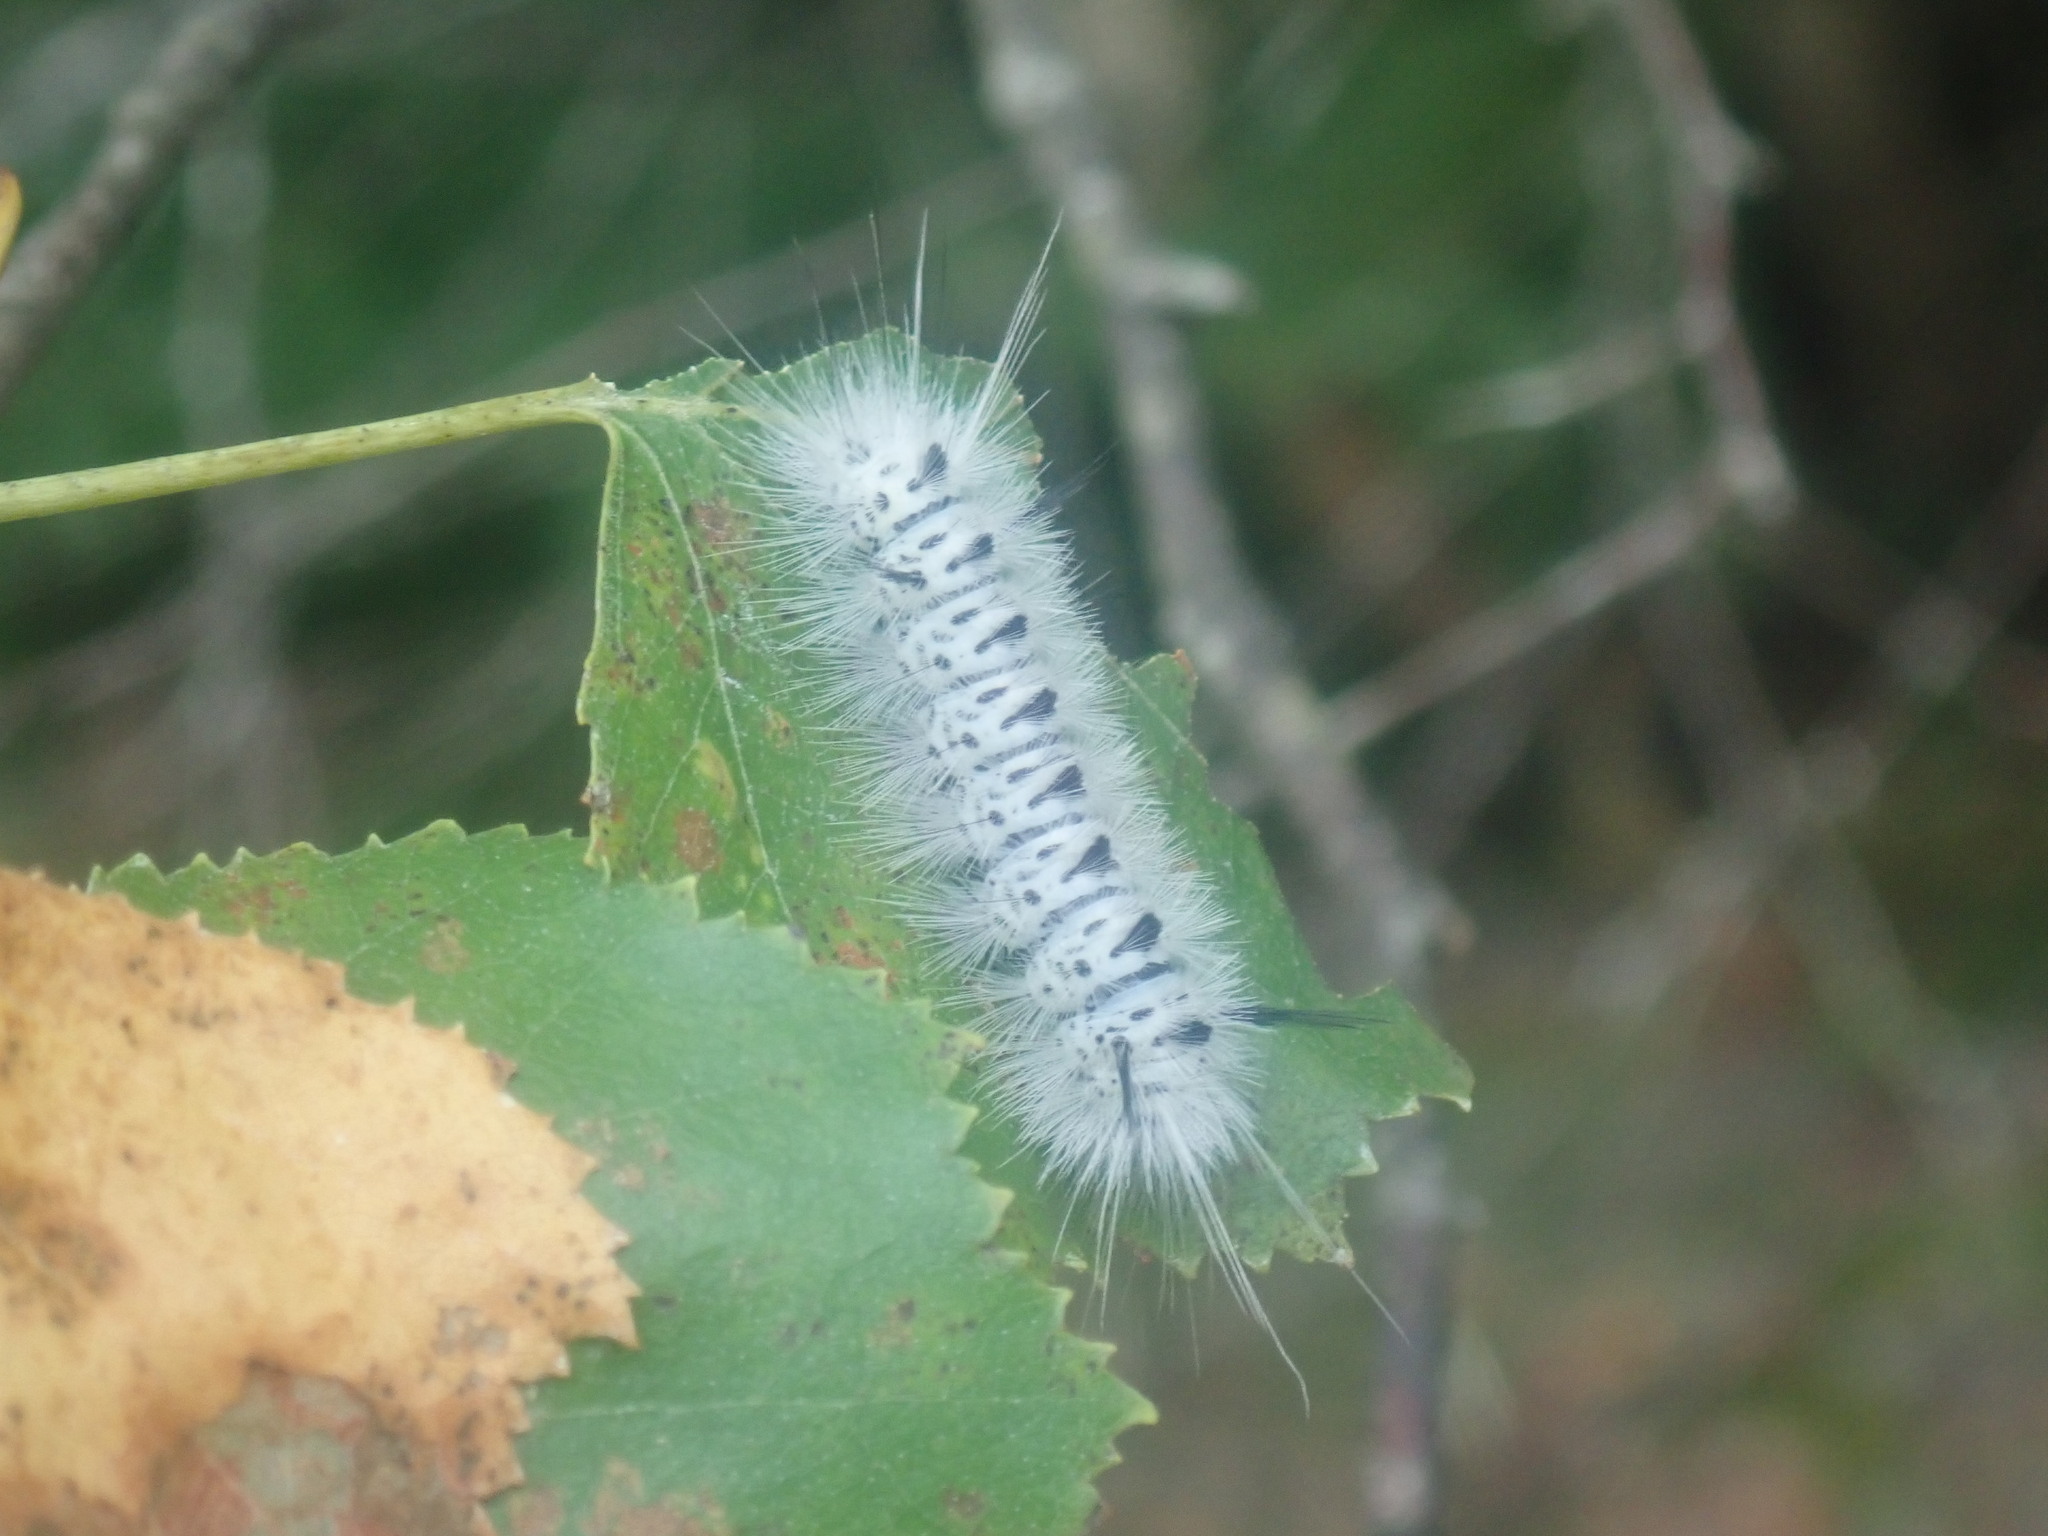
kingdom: Animalia
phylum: Arthropoda
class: Insecta
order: Lepidoptera
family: Erebidae
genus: Lophocampa
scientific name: Lophocampa caryae
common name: Hickory tussock moth
